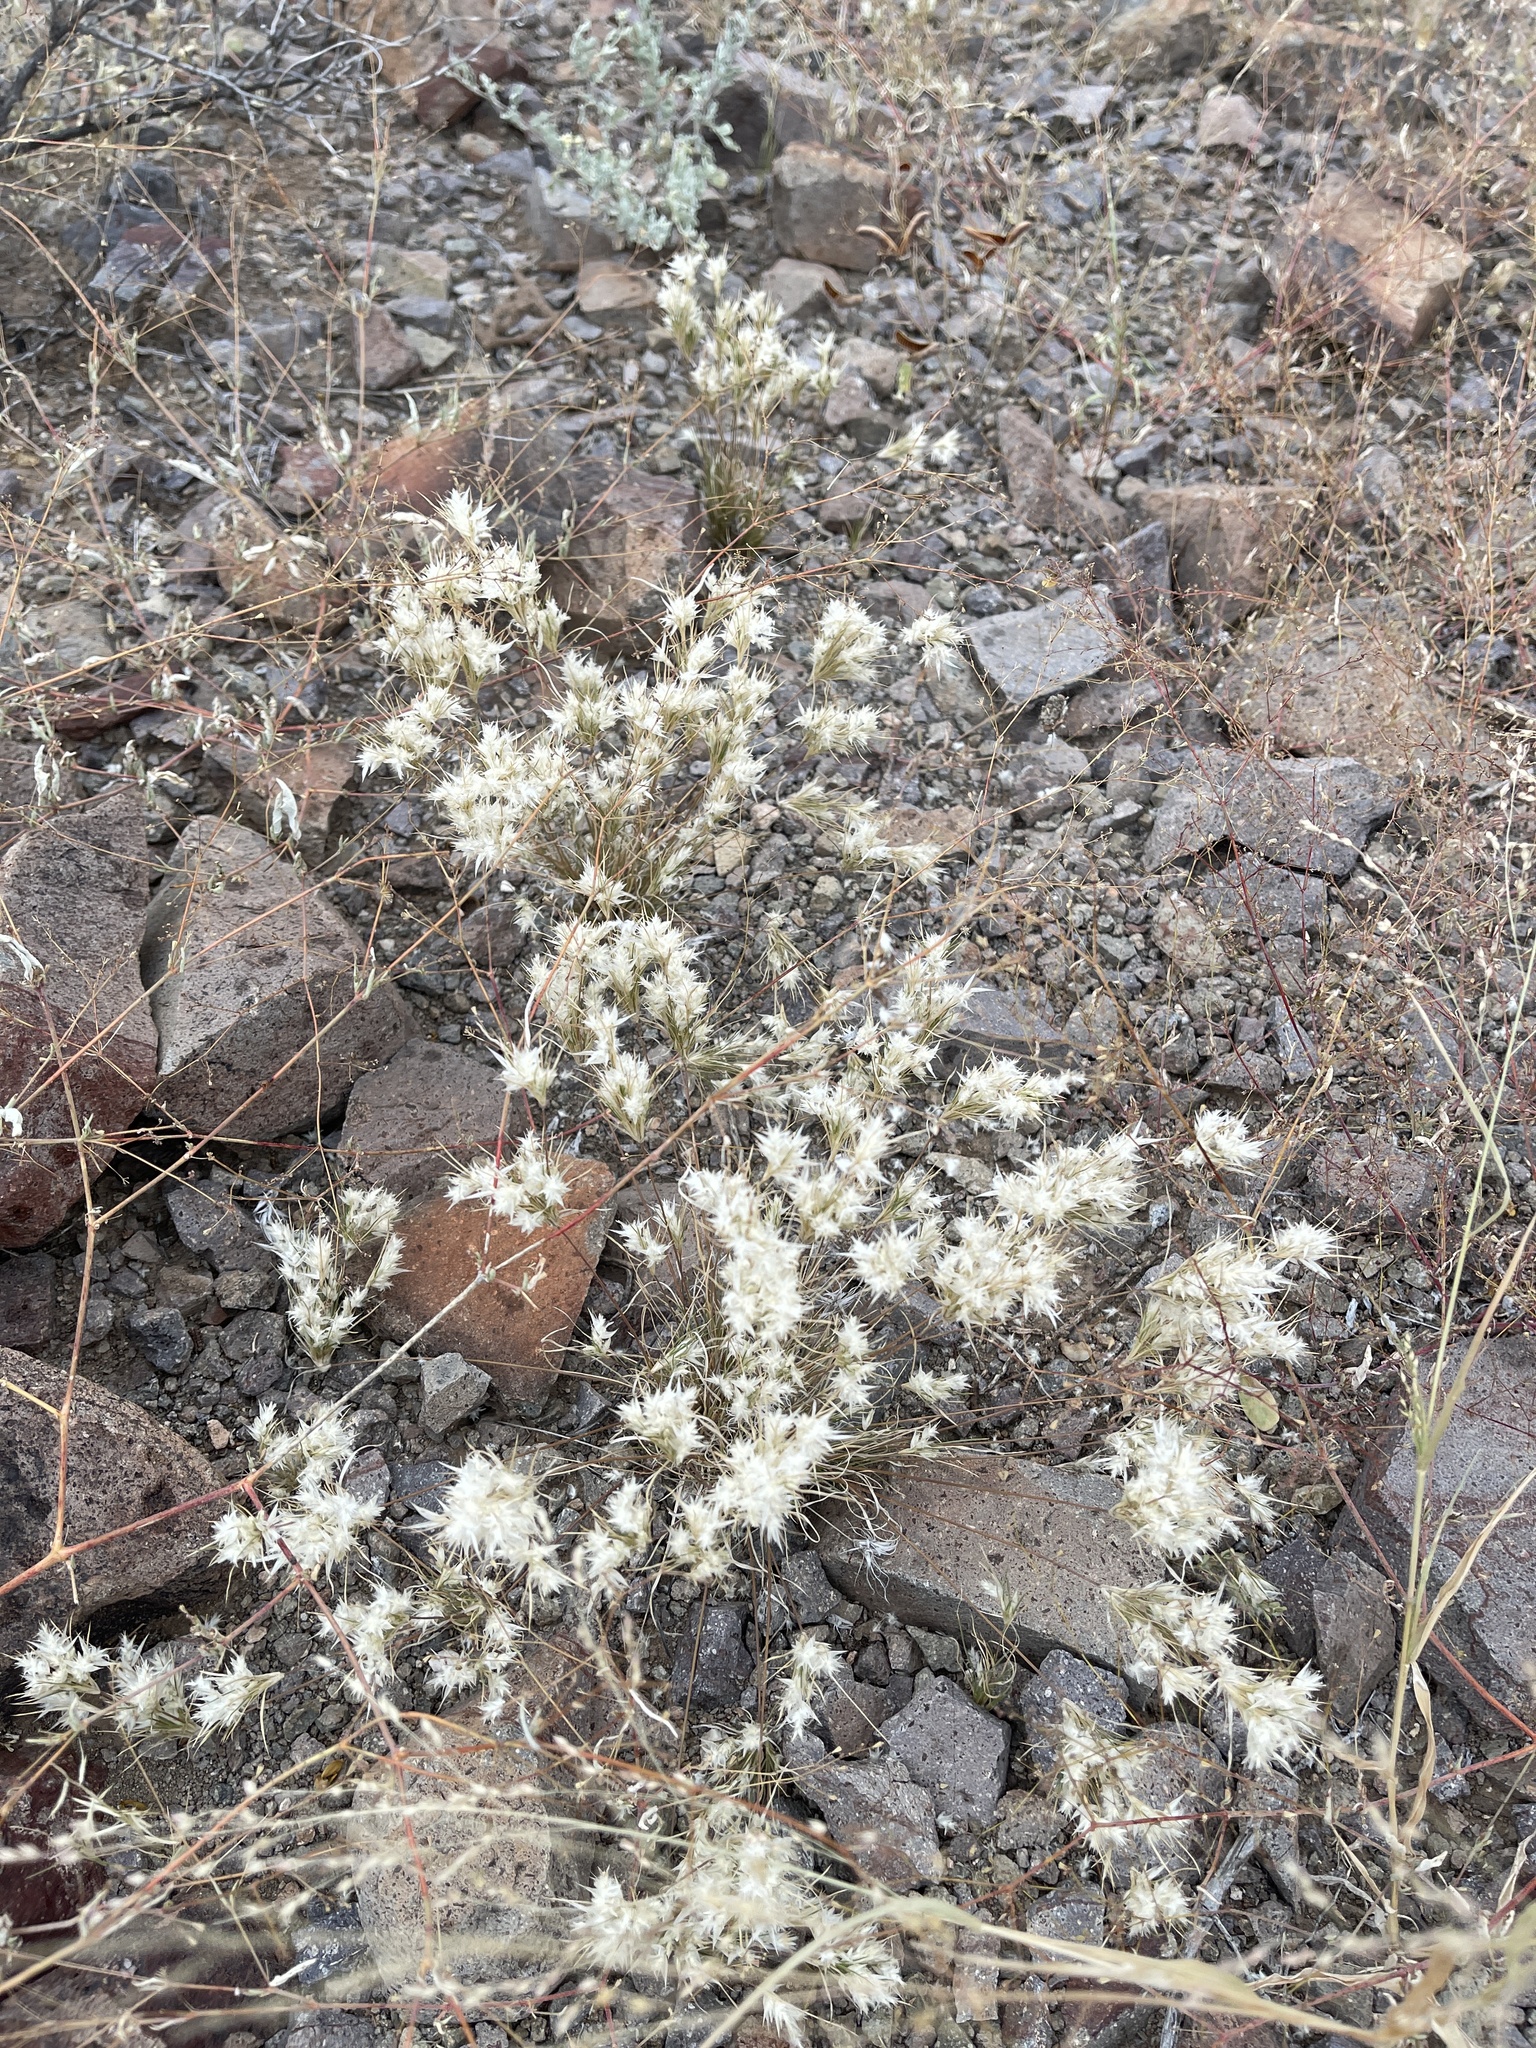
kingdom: Plantae
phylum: Tracheophyta
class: Liliopsida
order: Poales
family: Poaceae
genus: Dasyochloa
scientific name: Dasyochloa pulchella
